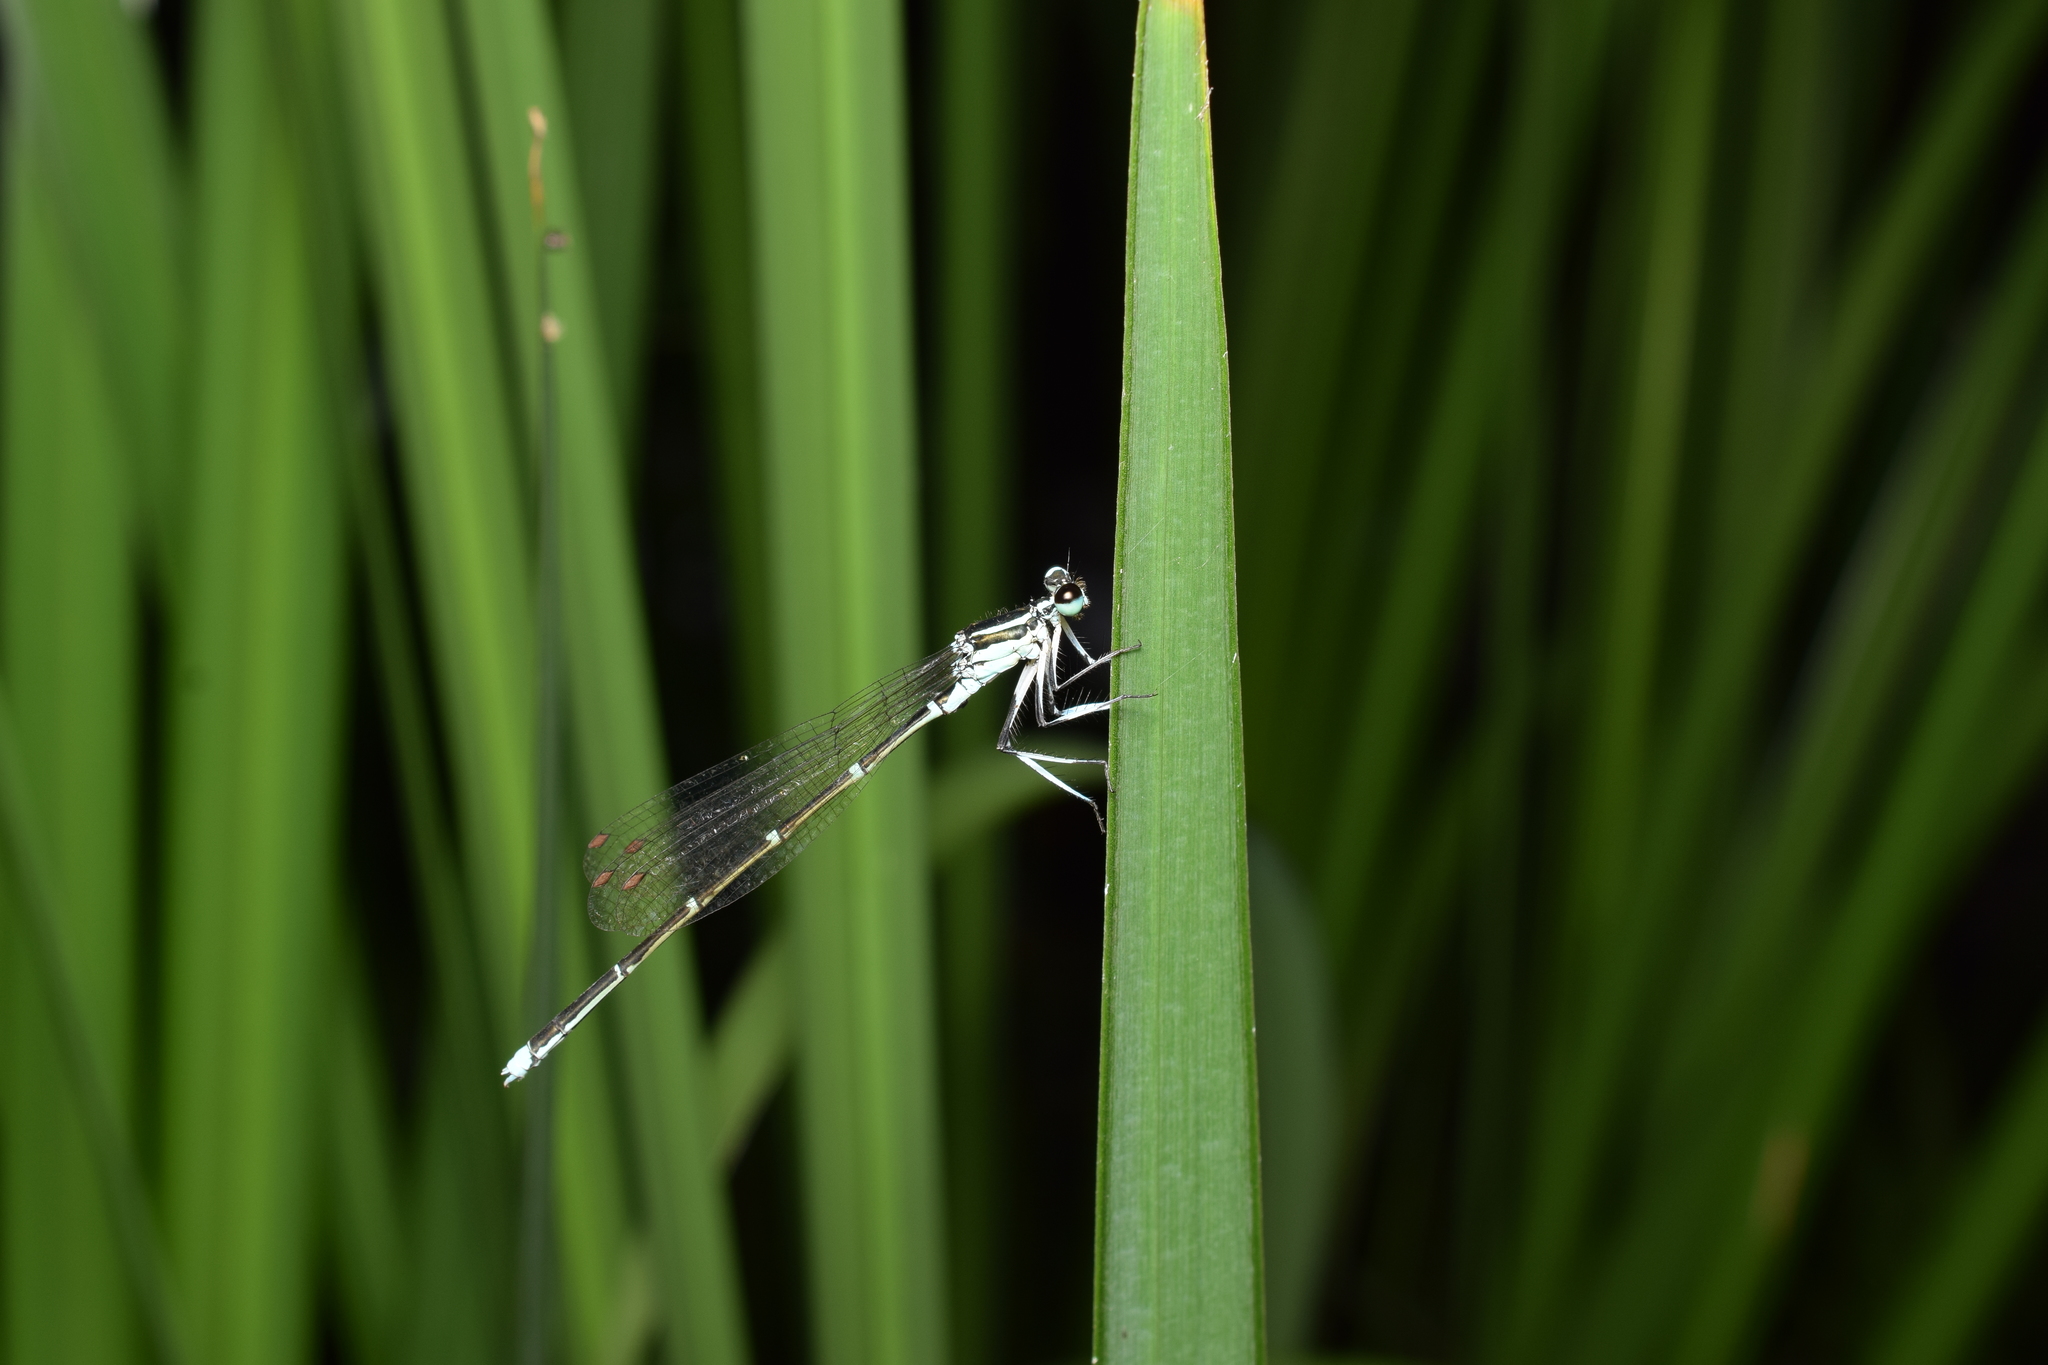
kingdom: Animalia
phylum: Arthropoda
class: Insecta
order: Odonata
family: Platycnemididae
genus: Pseudocopera
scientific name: Pseudocopera annulata
